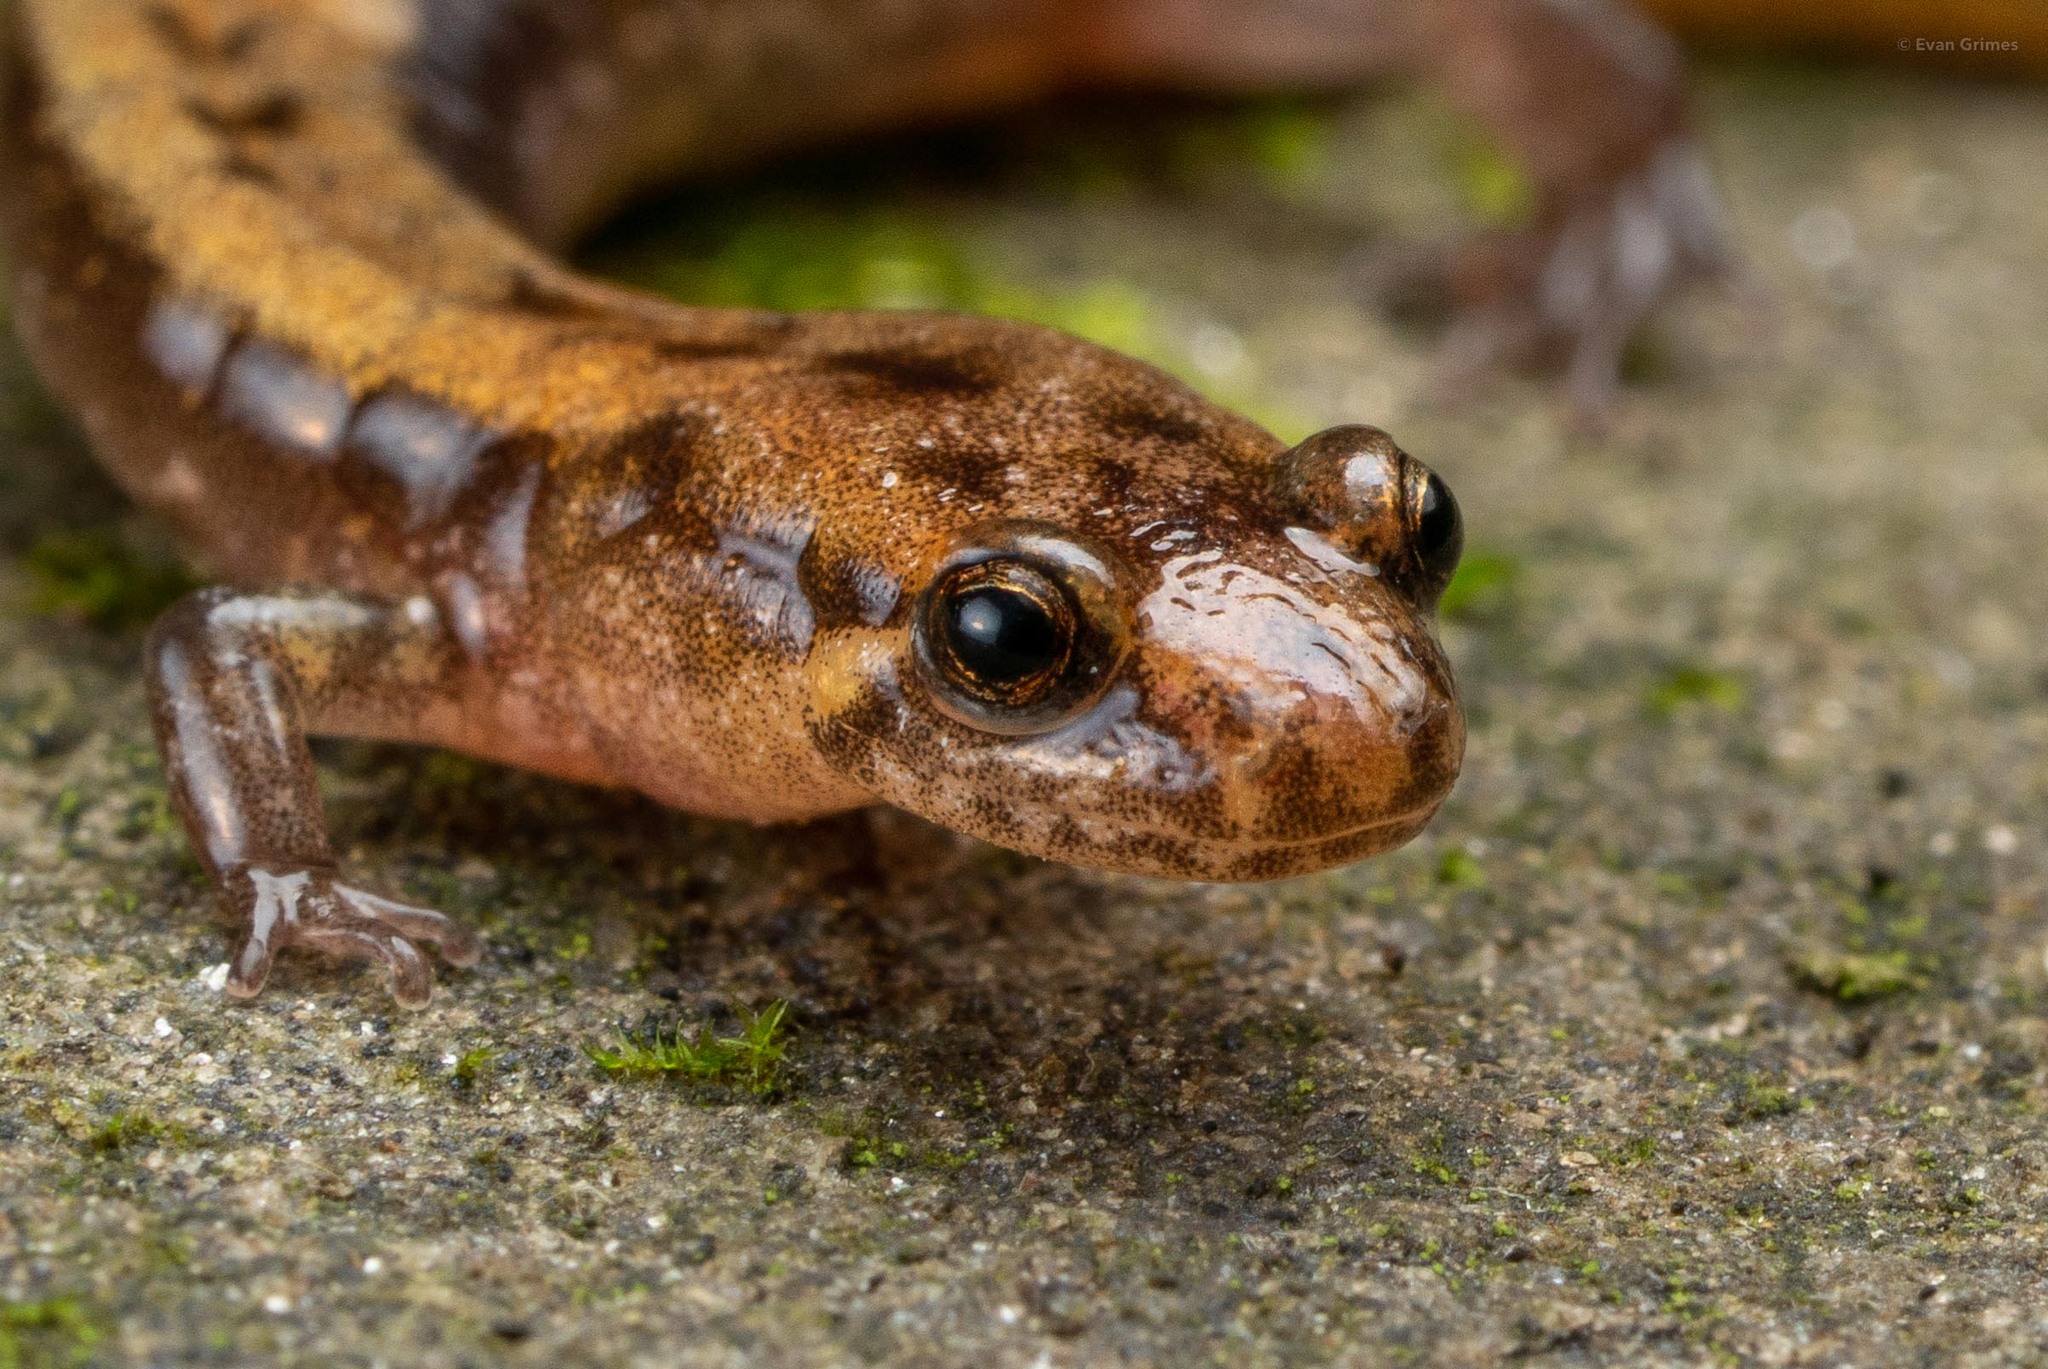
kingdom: Animalia
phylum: Chordata
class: Amphibia
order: Caudata
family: Plethodontidae
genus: Desmognathus
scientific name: Desmognathus ochrophaeus
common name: Allegheny mountain dusky salamander
